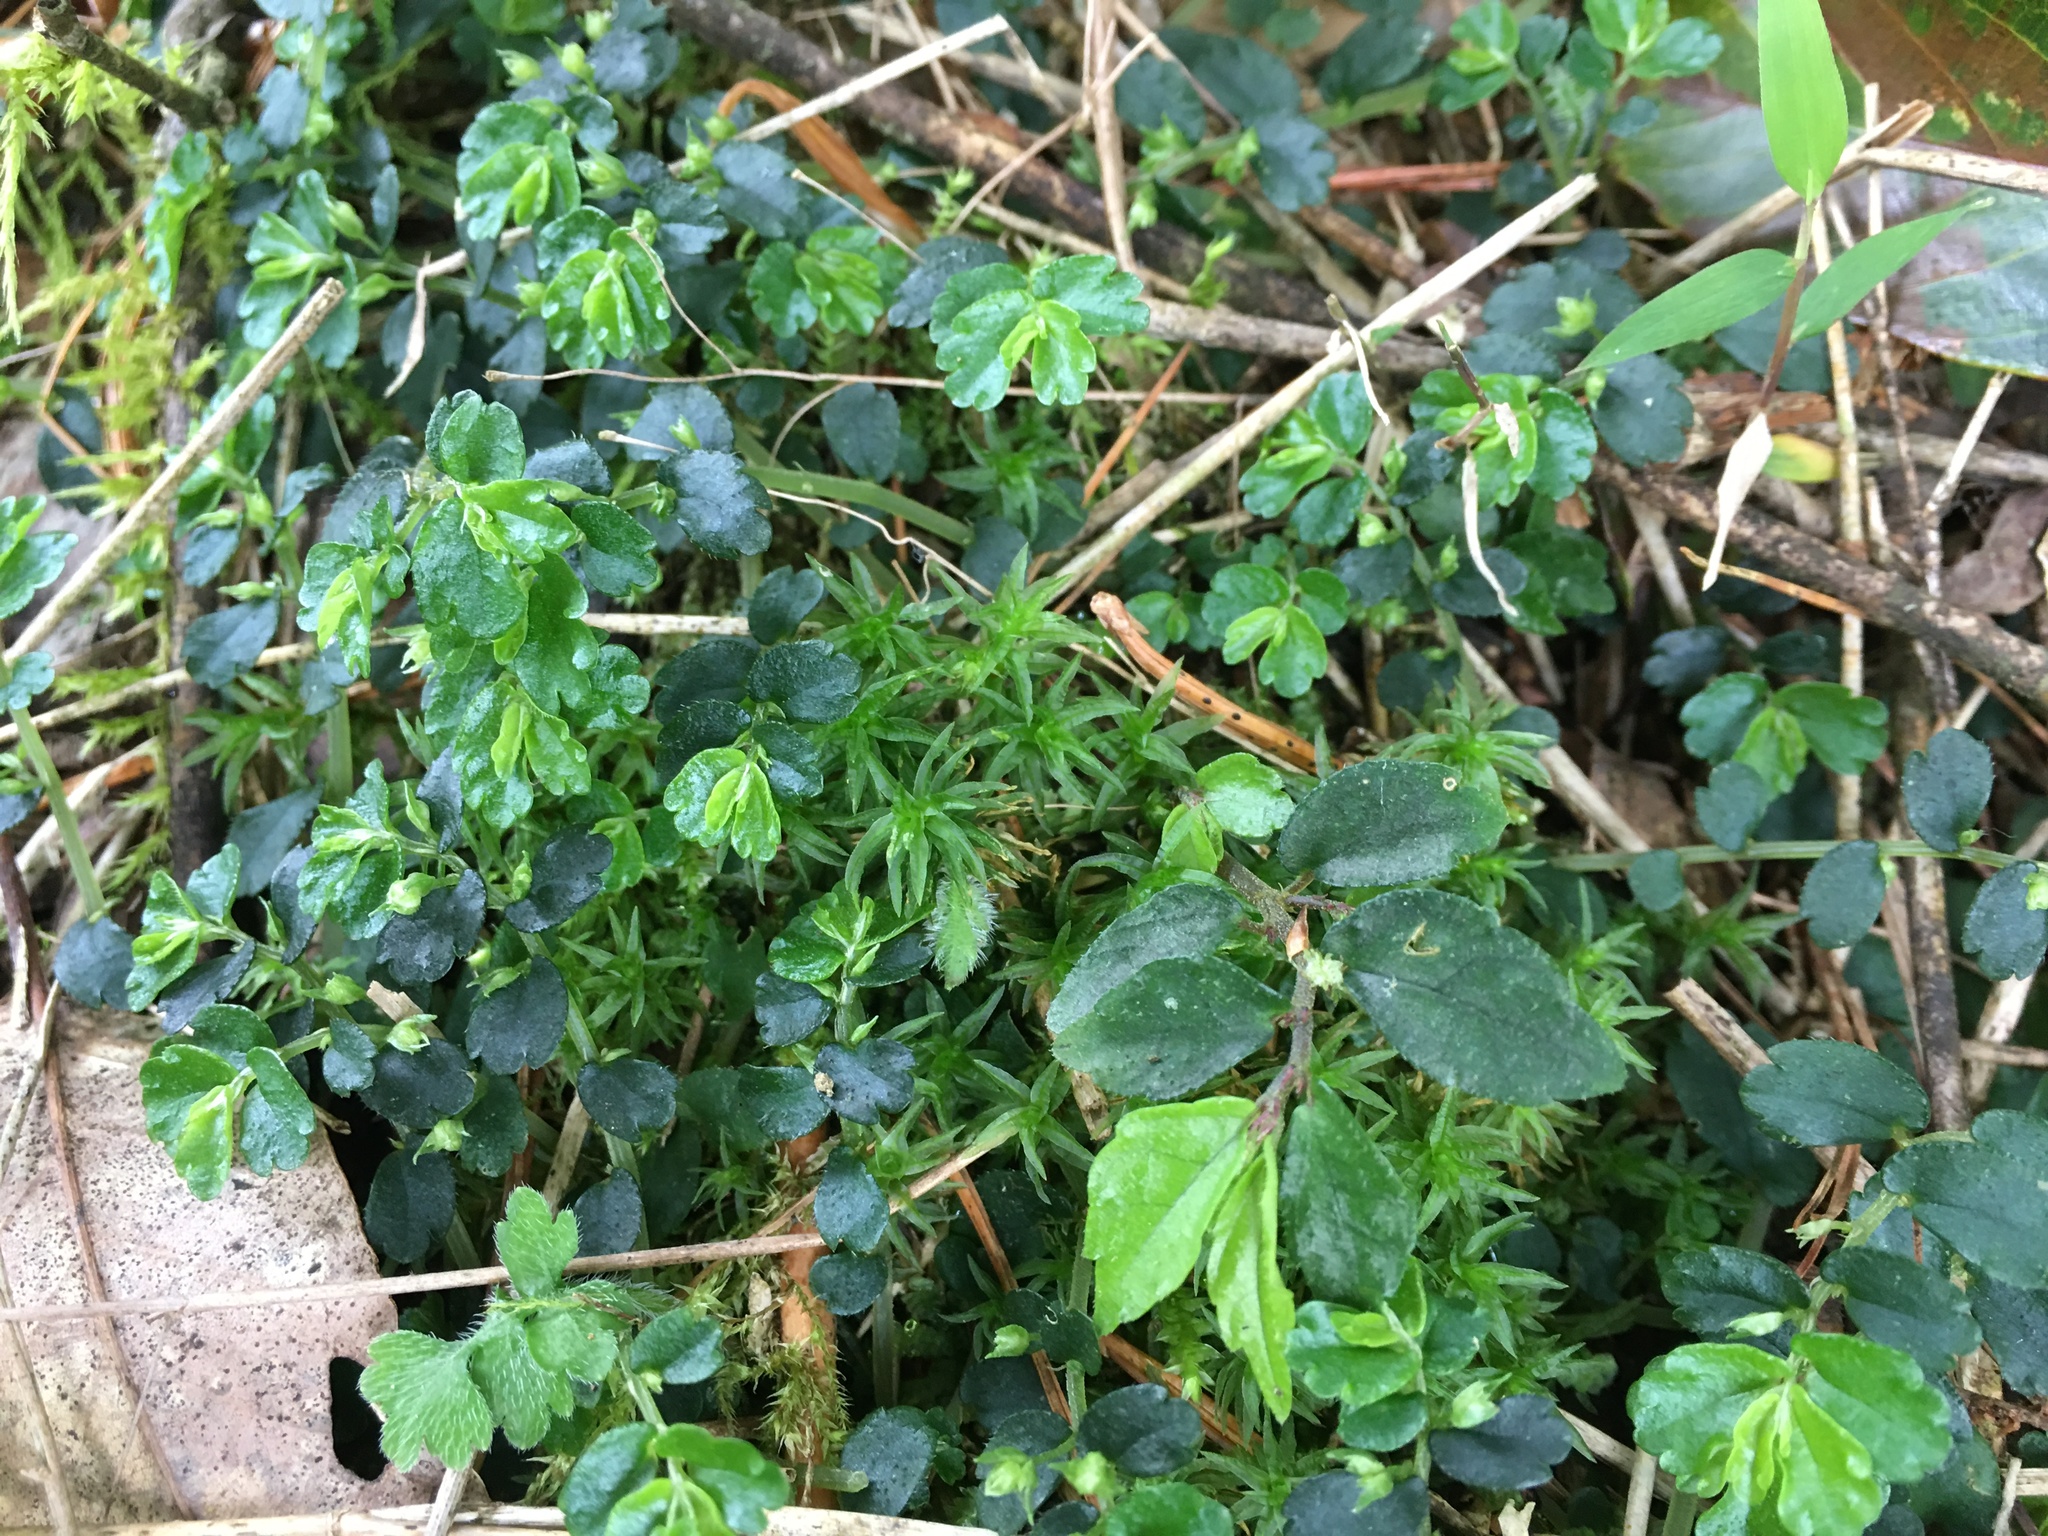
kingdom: Plantae
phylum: Tracheophyta
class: Magnoliopsida
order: Rosales
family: Urticaceae
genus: Elatostema
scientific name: Elatostema obtusum
